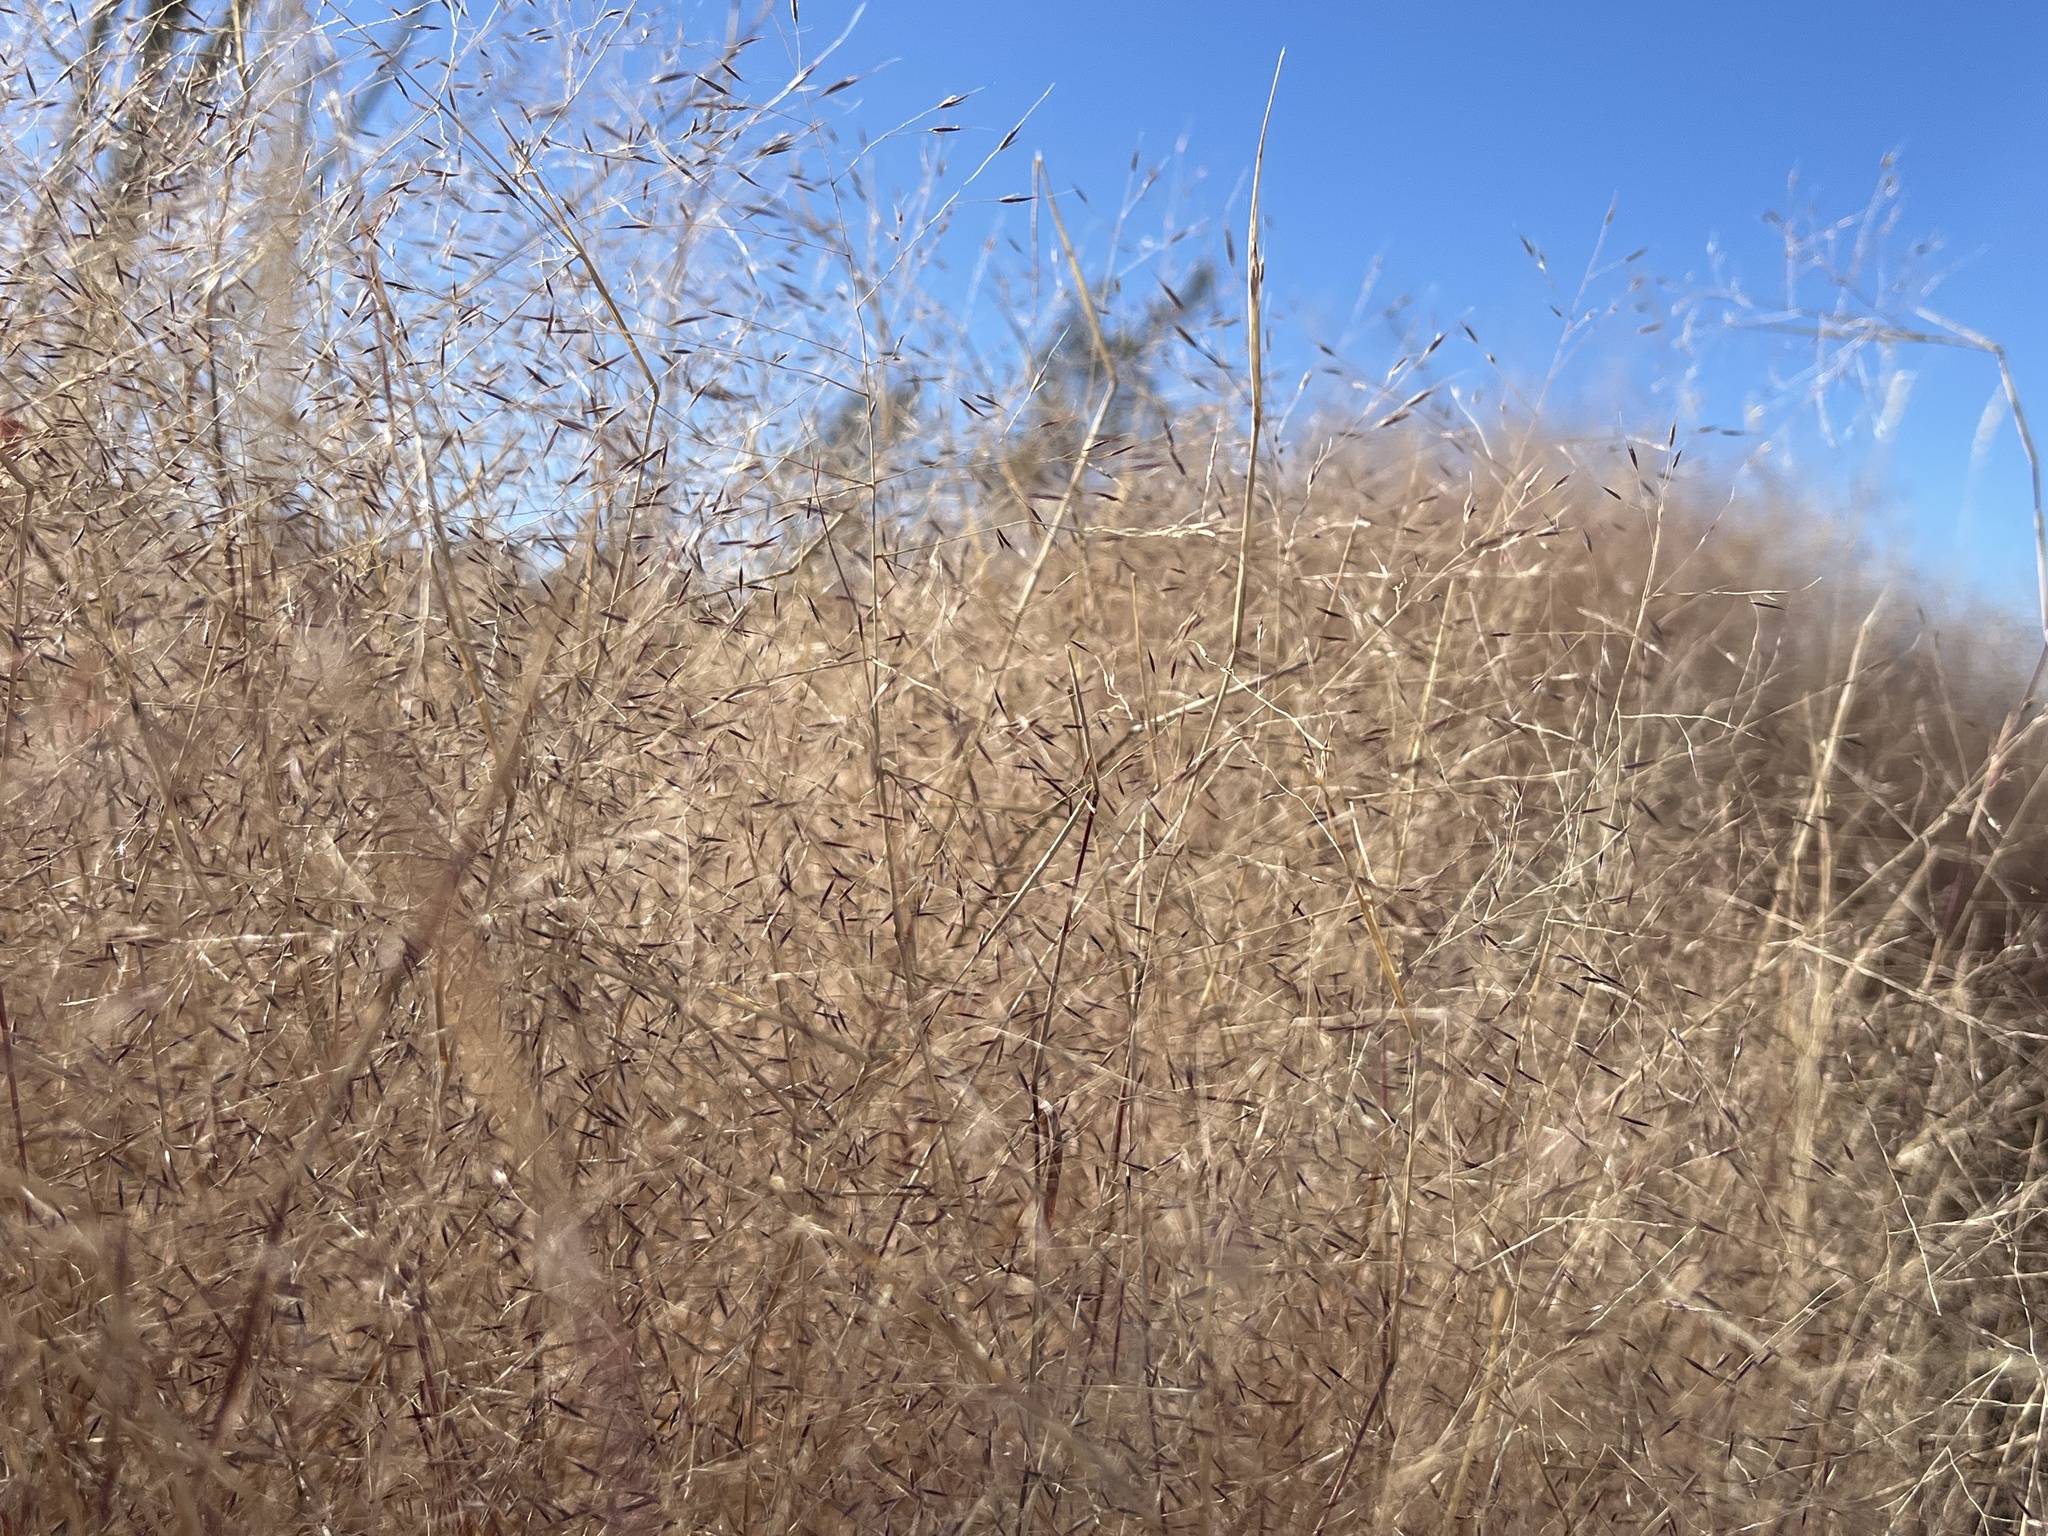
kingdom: Plantae
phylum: Tracheophyta
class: Liliopsida
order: Poales
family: Poaceae
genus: Muhlenbergia
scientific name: Muhlenbergia porteri
